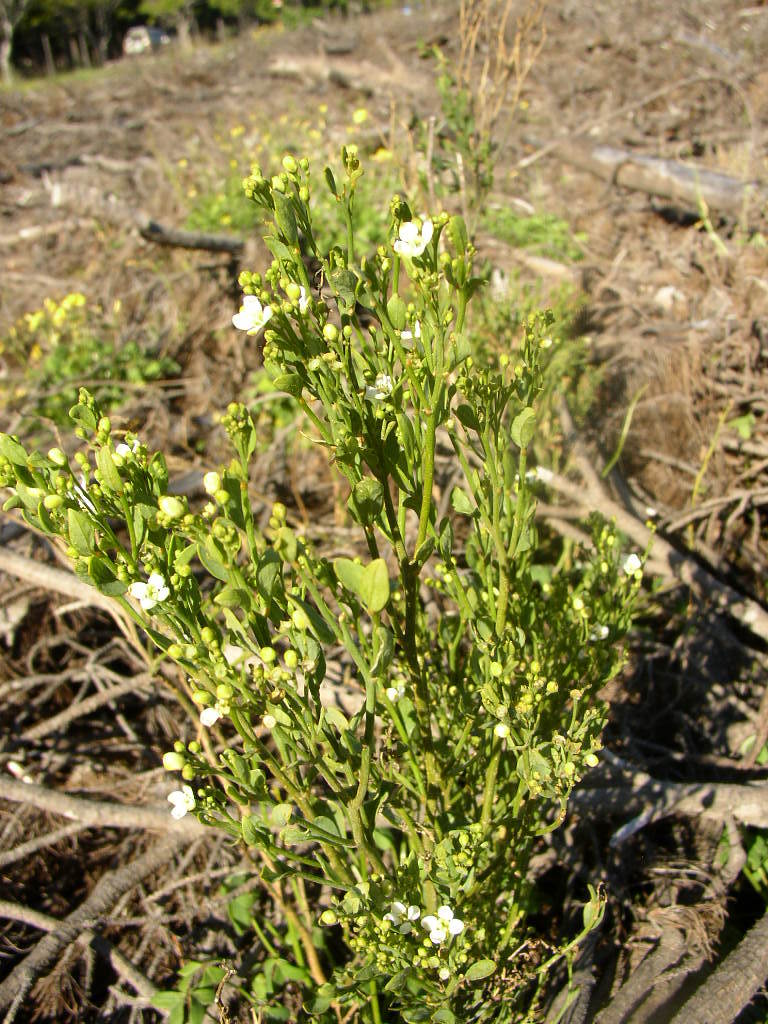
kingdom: Plantae
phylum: Tracheophyta
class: Magnoliopsida
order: Solanales
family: Montiniaceae
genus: Montinia
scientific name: Montinia caryophyllacea
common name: Wild clove-bush
